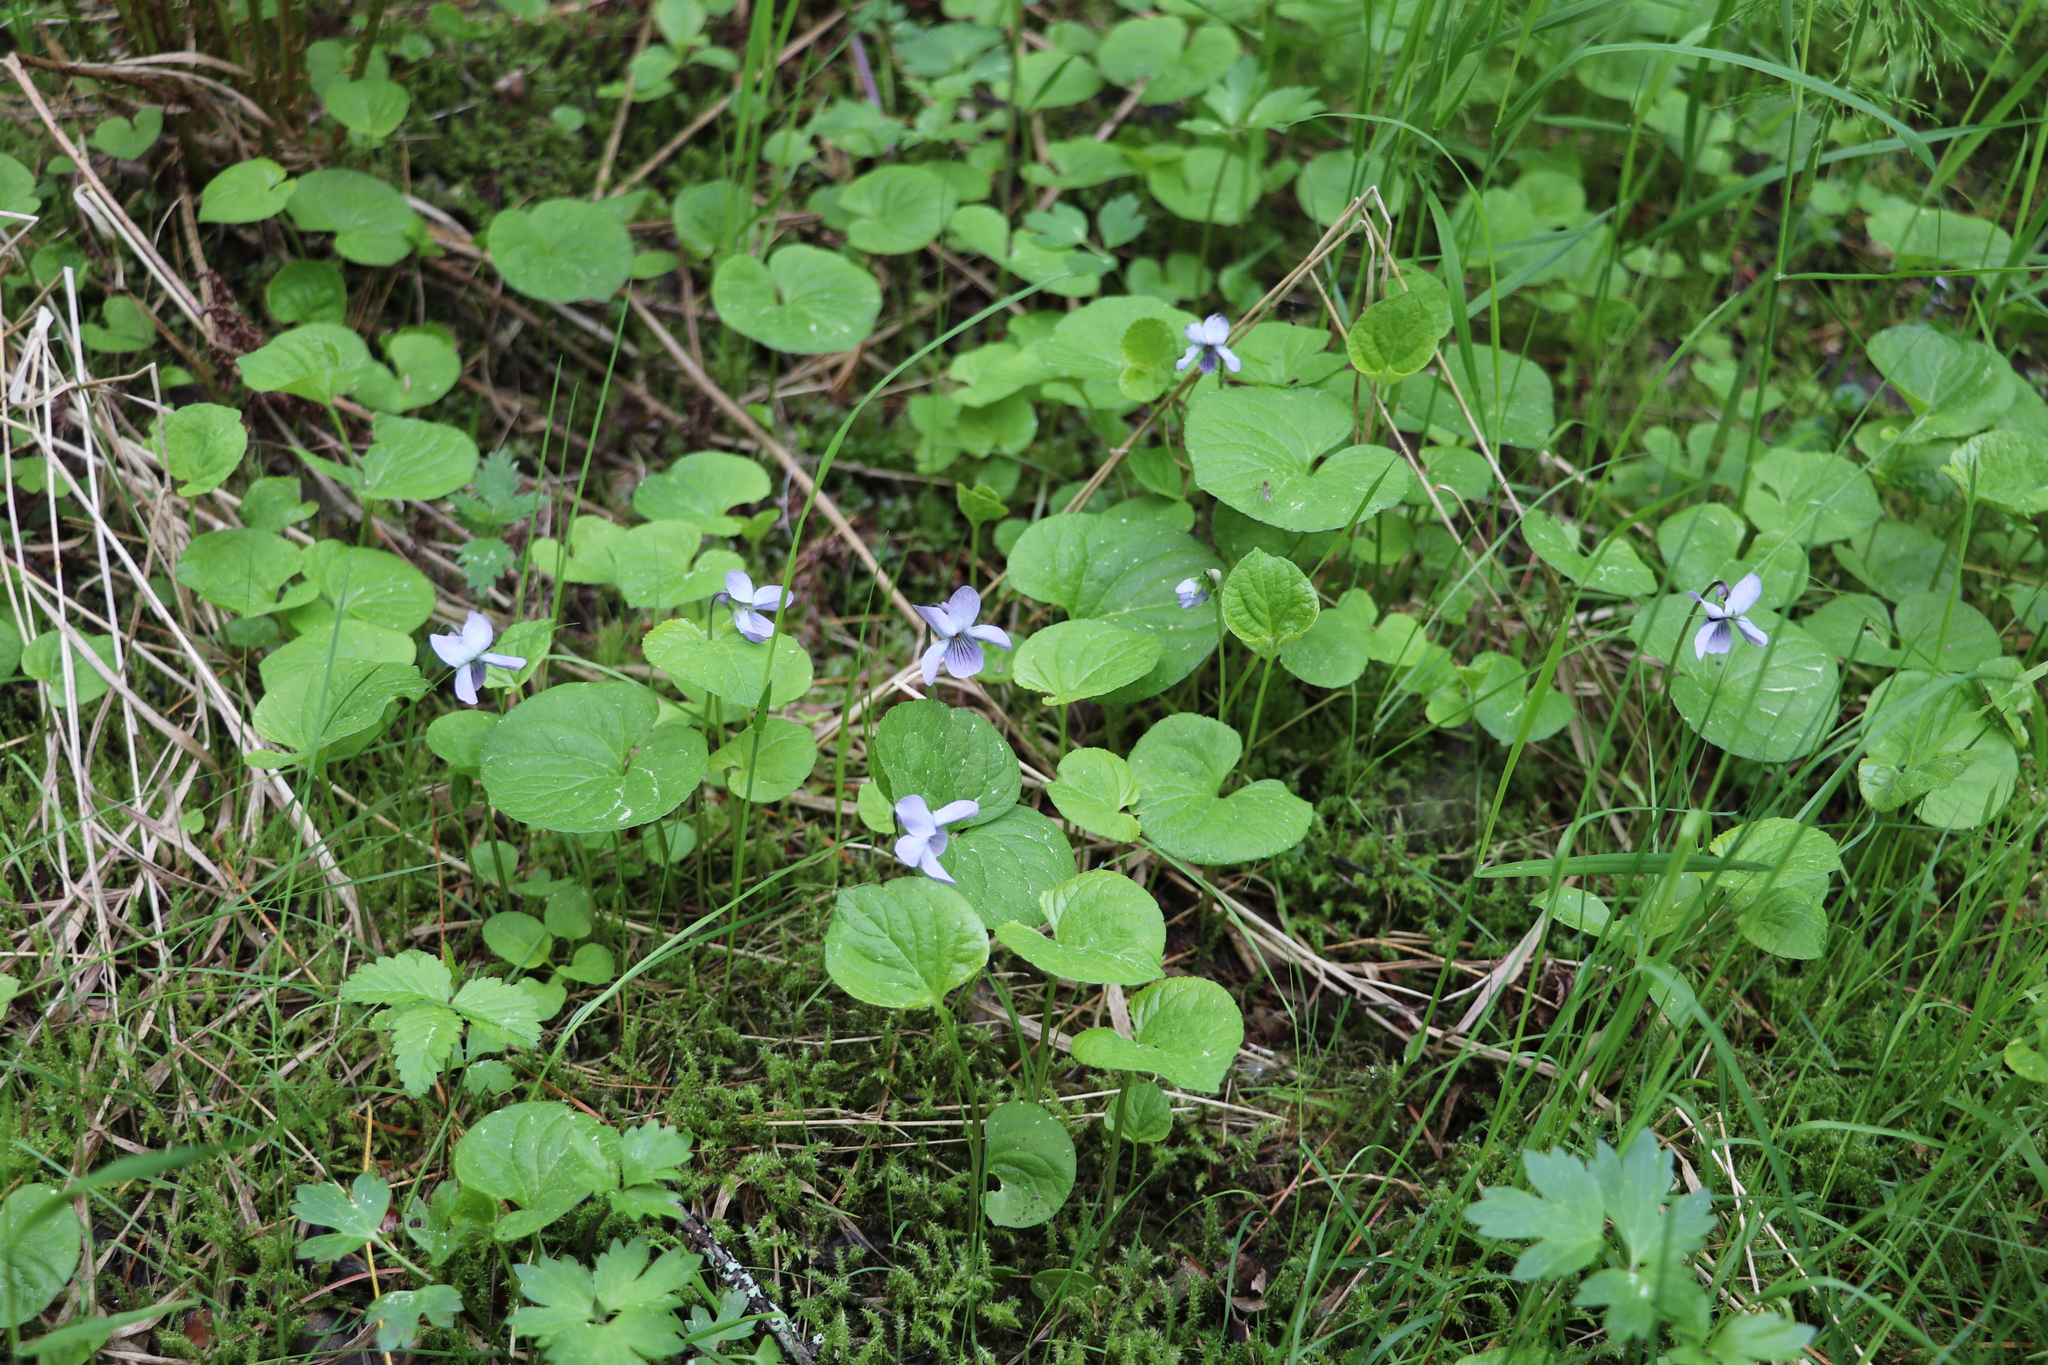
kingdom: Plantae
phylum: Tracheophyta
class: Magnoliopsida
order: Malpighiales
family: Violaceae
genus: Viola
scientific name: Viola epipsila
